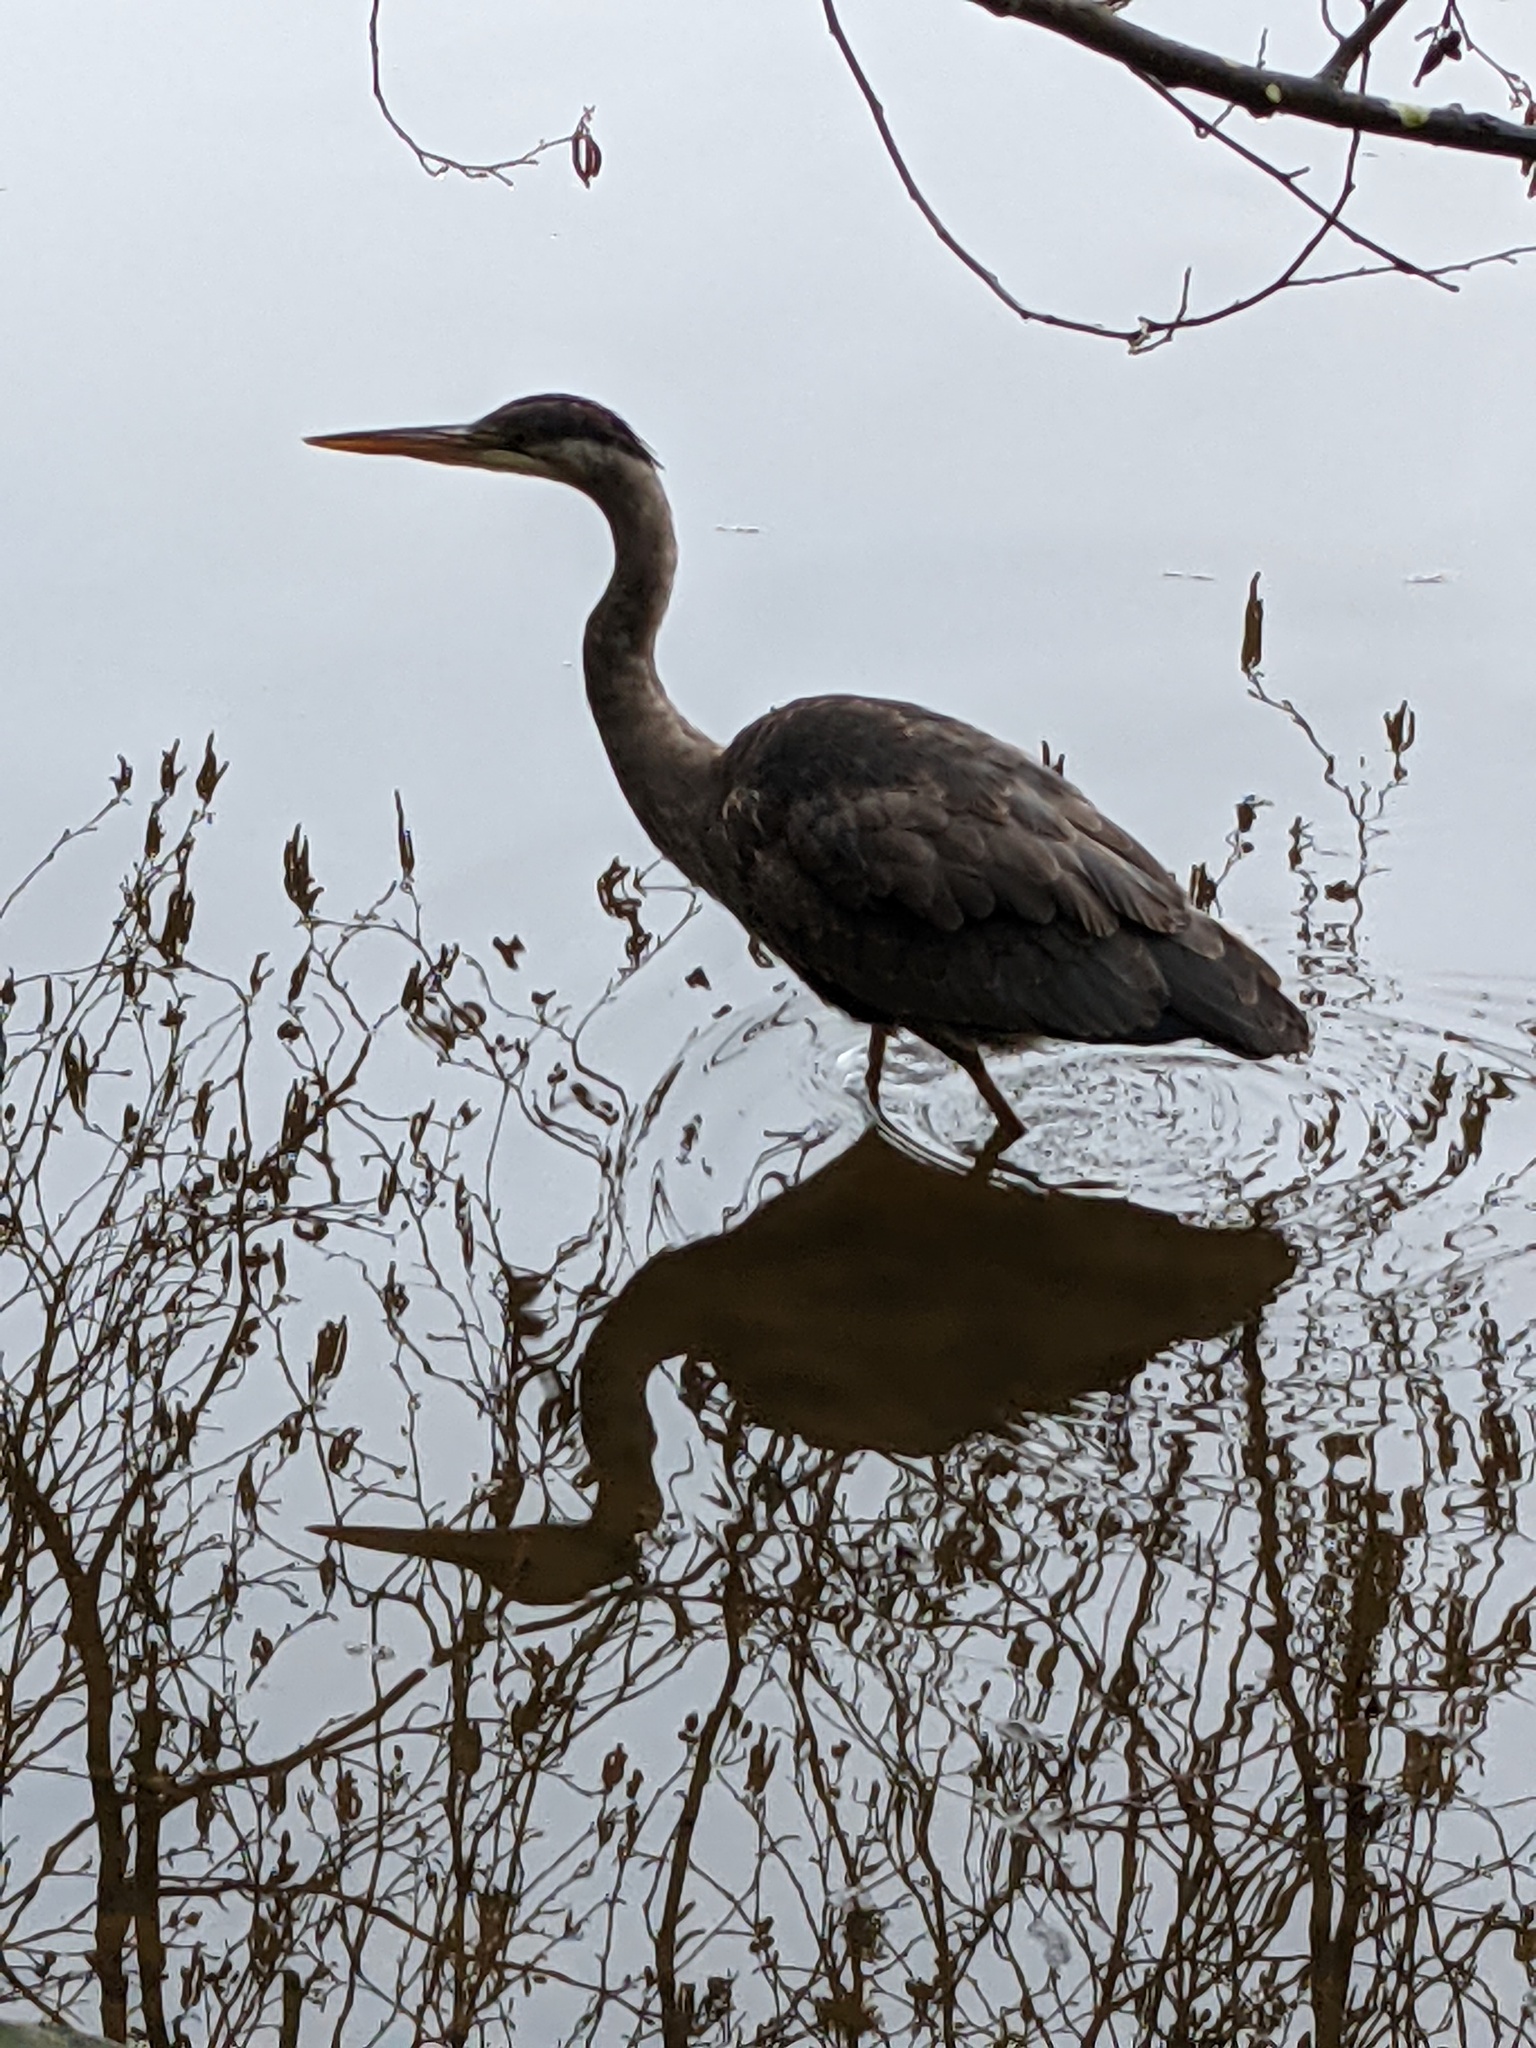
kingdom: Animalia
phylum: Chordata
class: Aves
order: Pelecaniformes
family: Ardeidae
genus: Ardea
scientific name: Ardea herodias
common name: Great blue heron
